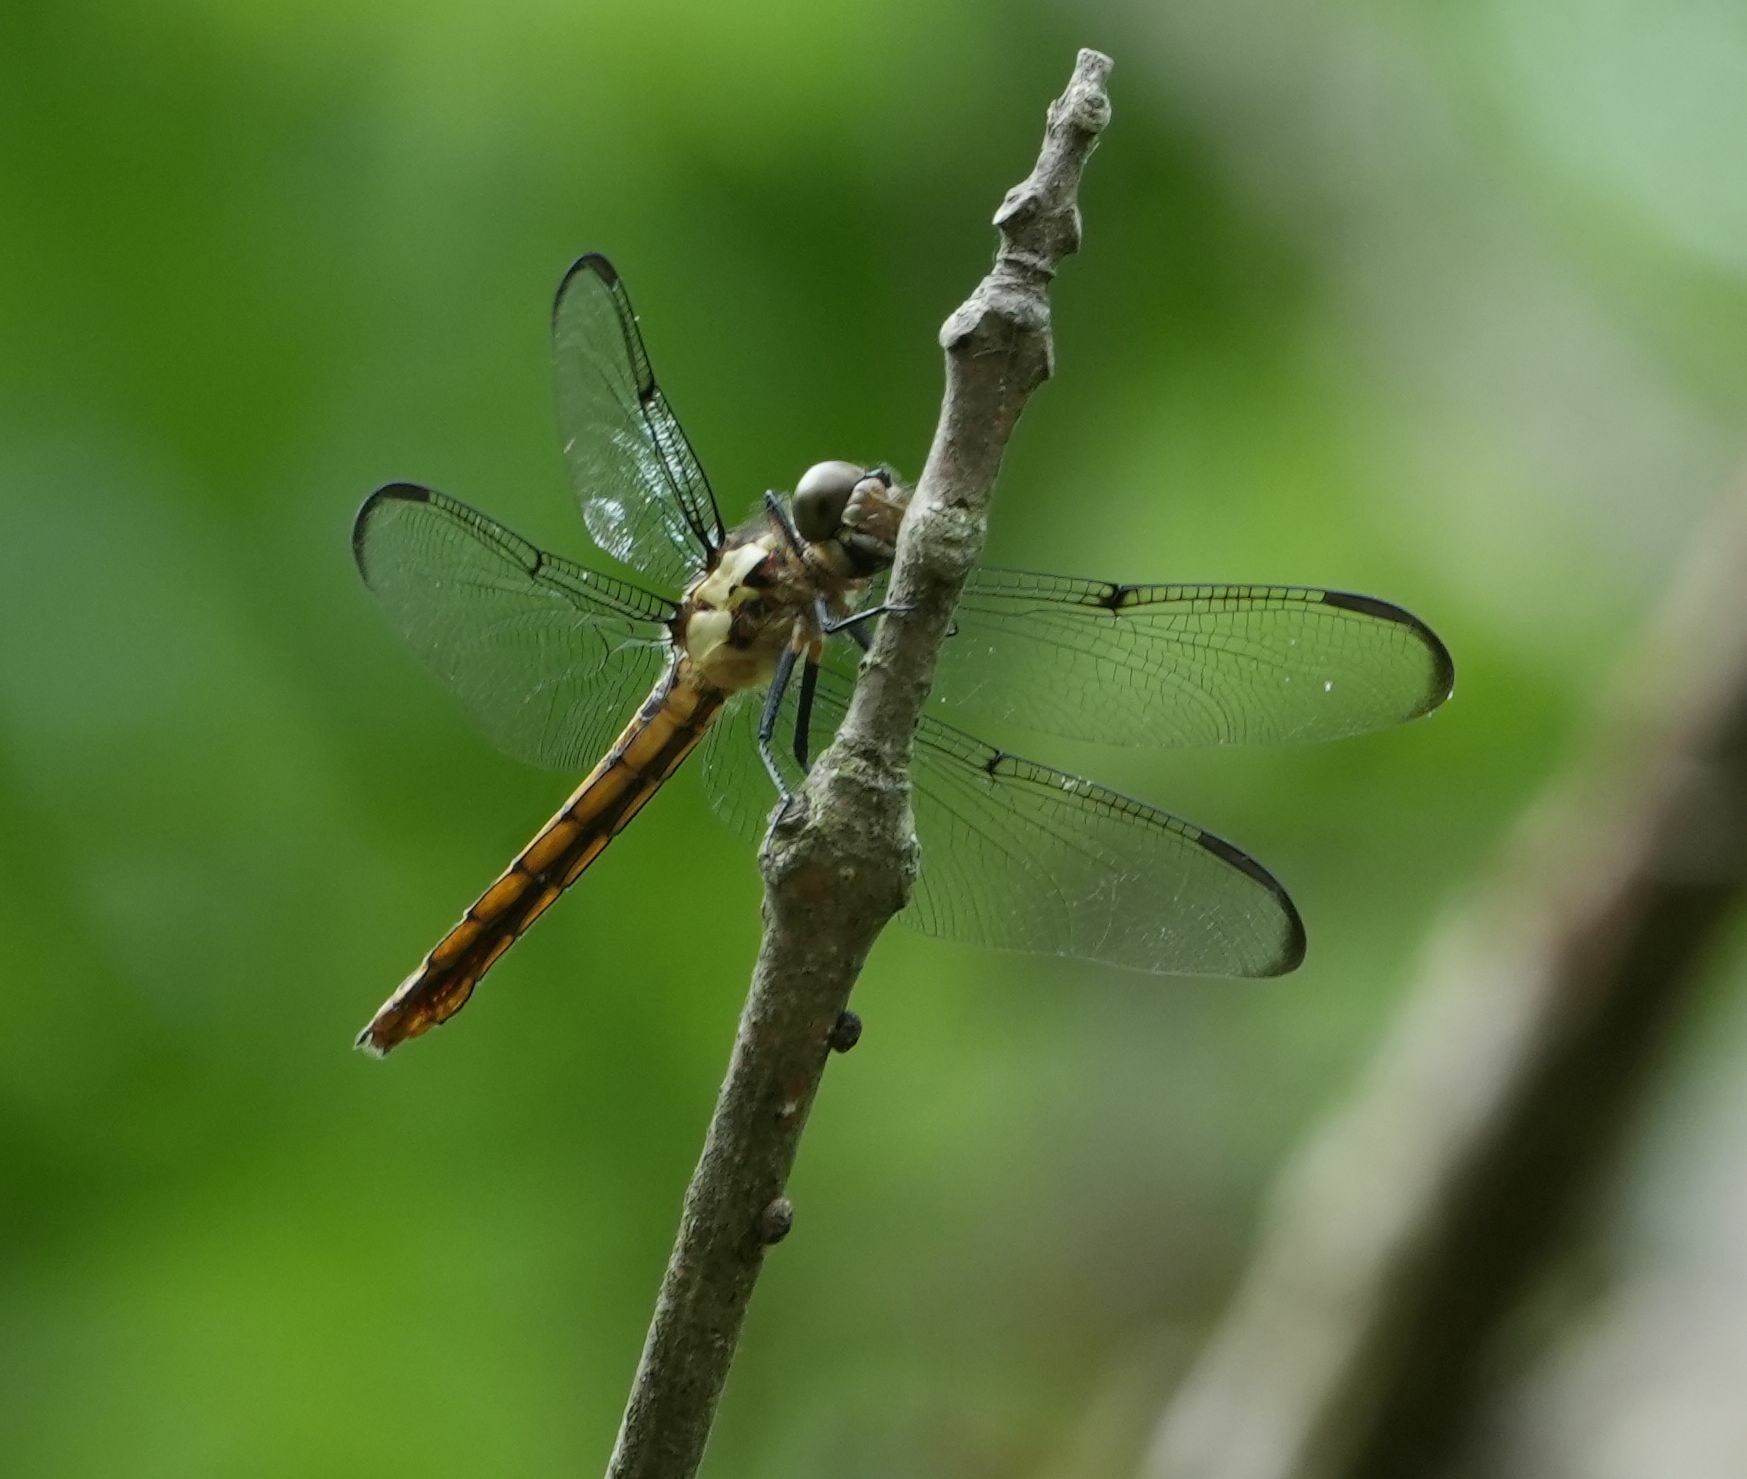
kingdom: Animalia
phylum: Arthropoda
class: Insecta
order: Odonata
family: Libellulidae
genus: Libellula
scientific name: Libellula incesta
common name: Slaty skimmer
